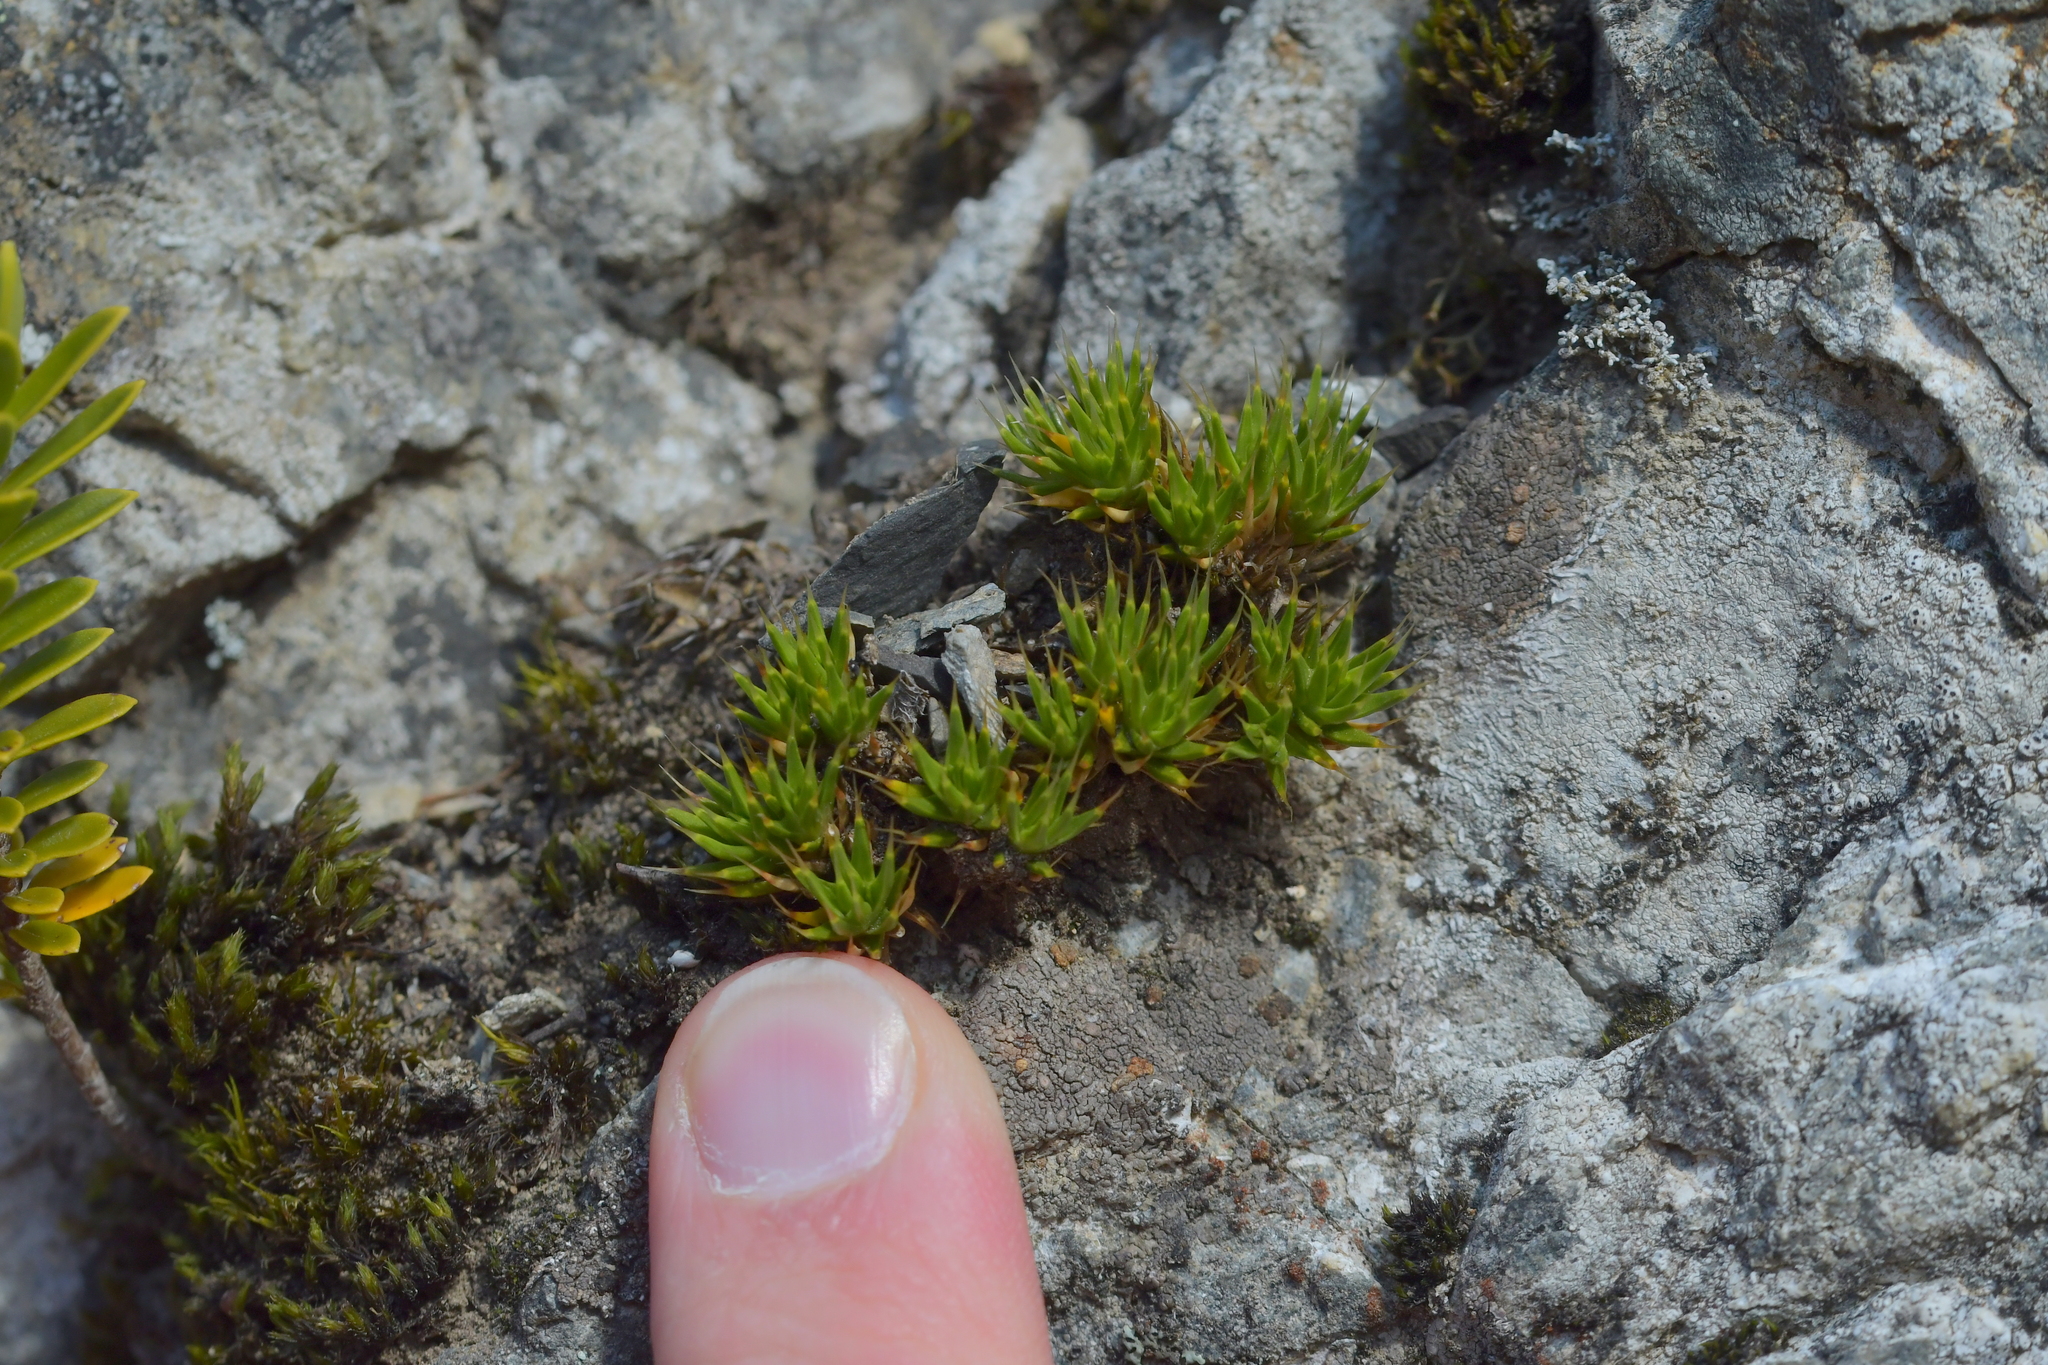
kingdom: Plantae
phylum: Tracheophyta
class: Magnoliopsida
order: Caryophyllales
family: Caryophyllaceae
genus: Colobanthus
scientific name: Colobanthus acicularis
